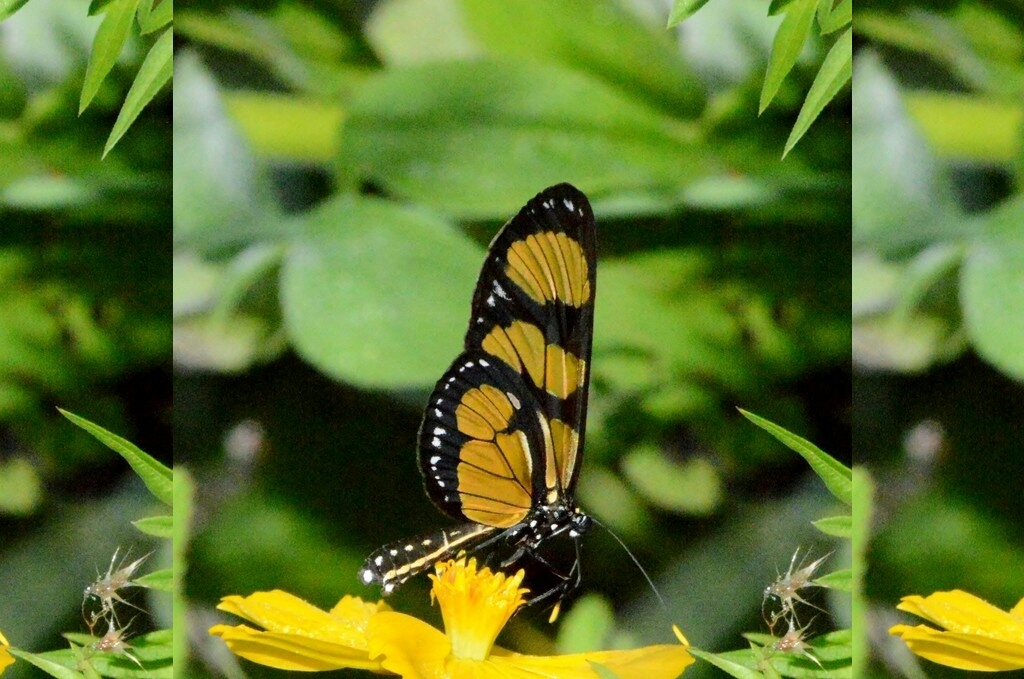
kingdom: Animalia
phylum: Arthropoda
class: Insecta
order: Lepidoptera
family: Nymphalidae
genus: Methona
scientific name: Methona themisto
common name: Themisto amberwing
